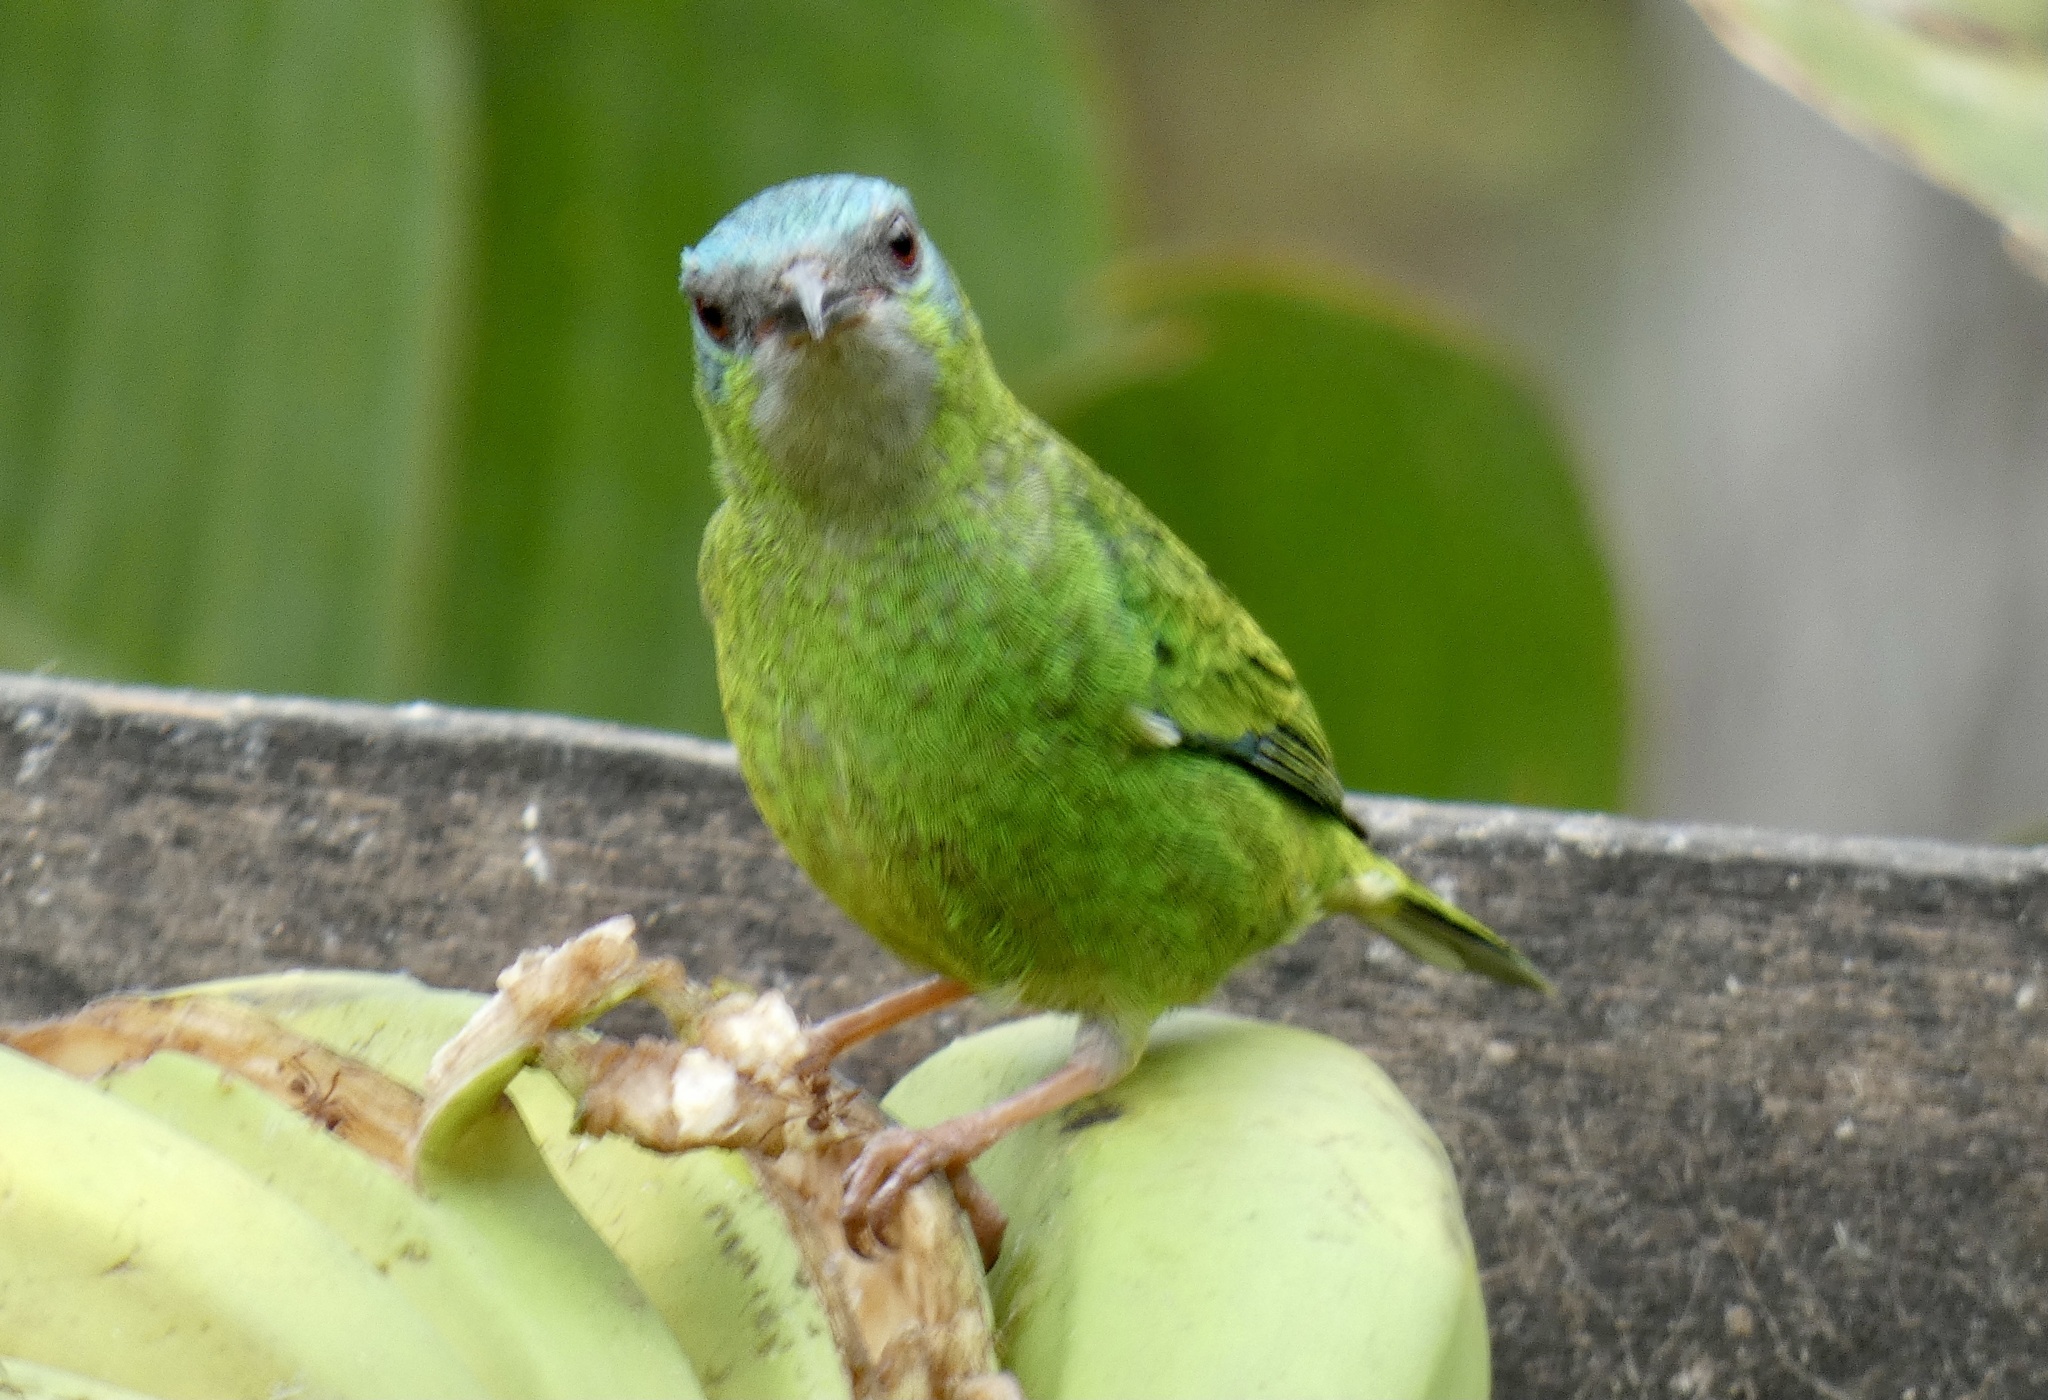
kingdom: Animalia
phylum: Chordata
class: Aves
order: Passeriformes
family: Thraupidae
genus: Dacnis
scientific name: Dacnis cayana
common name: Blue dacnis
